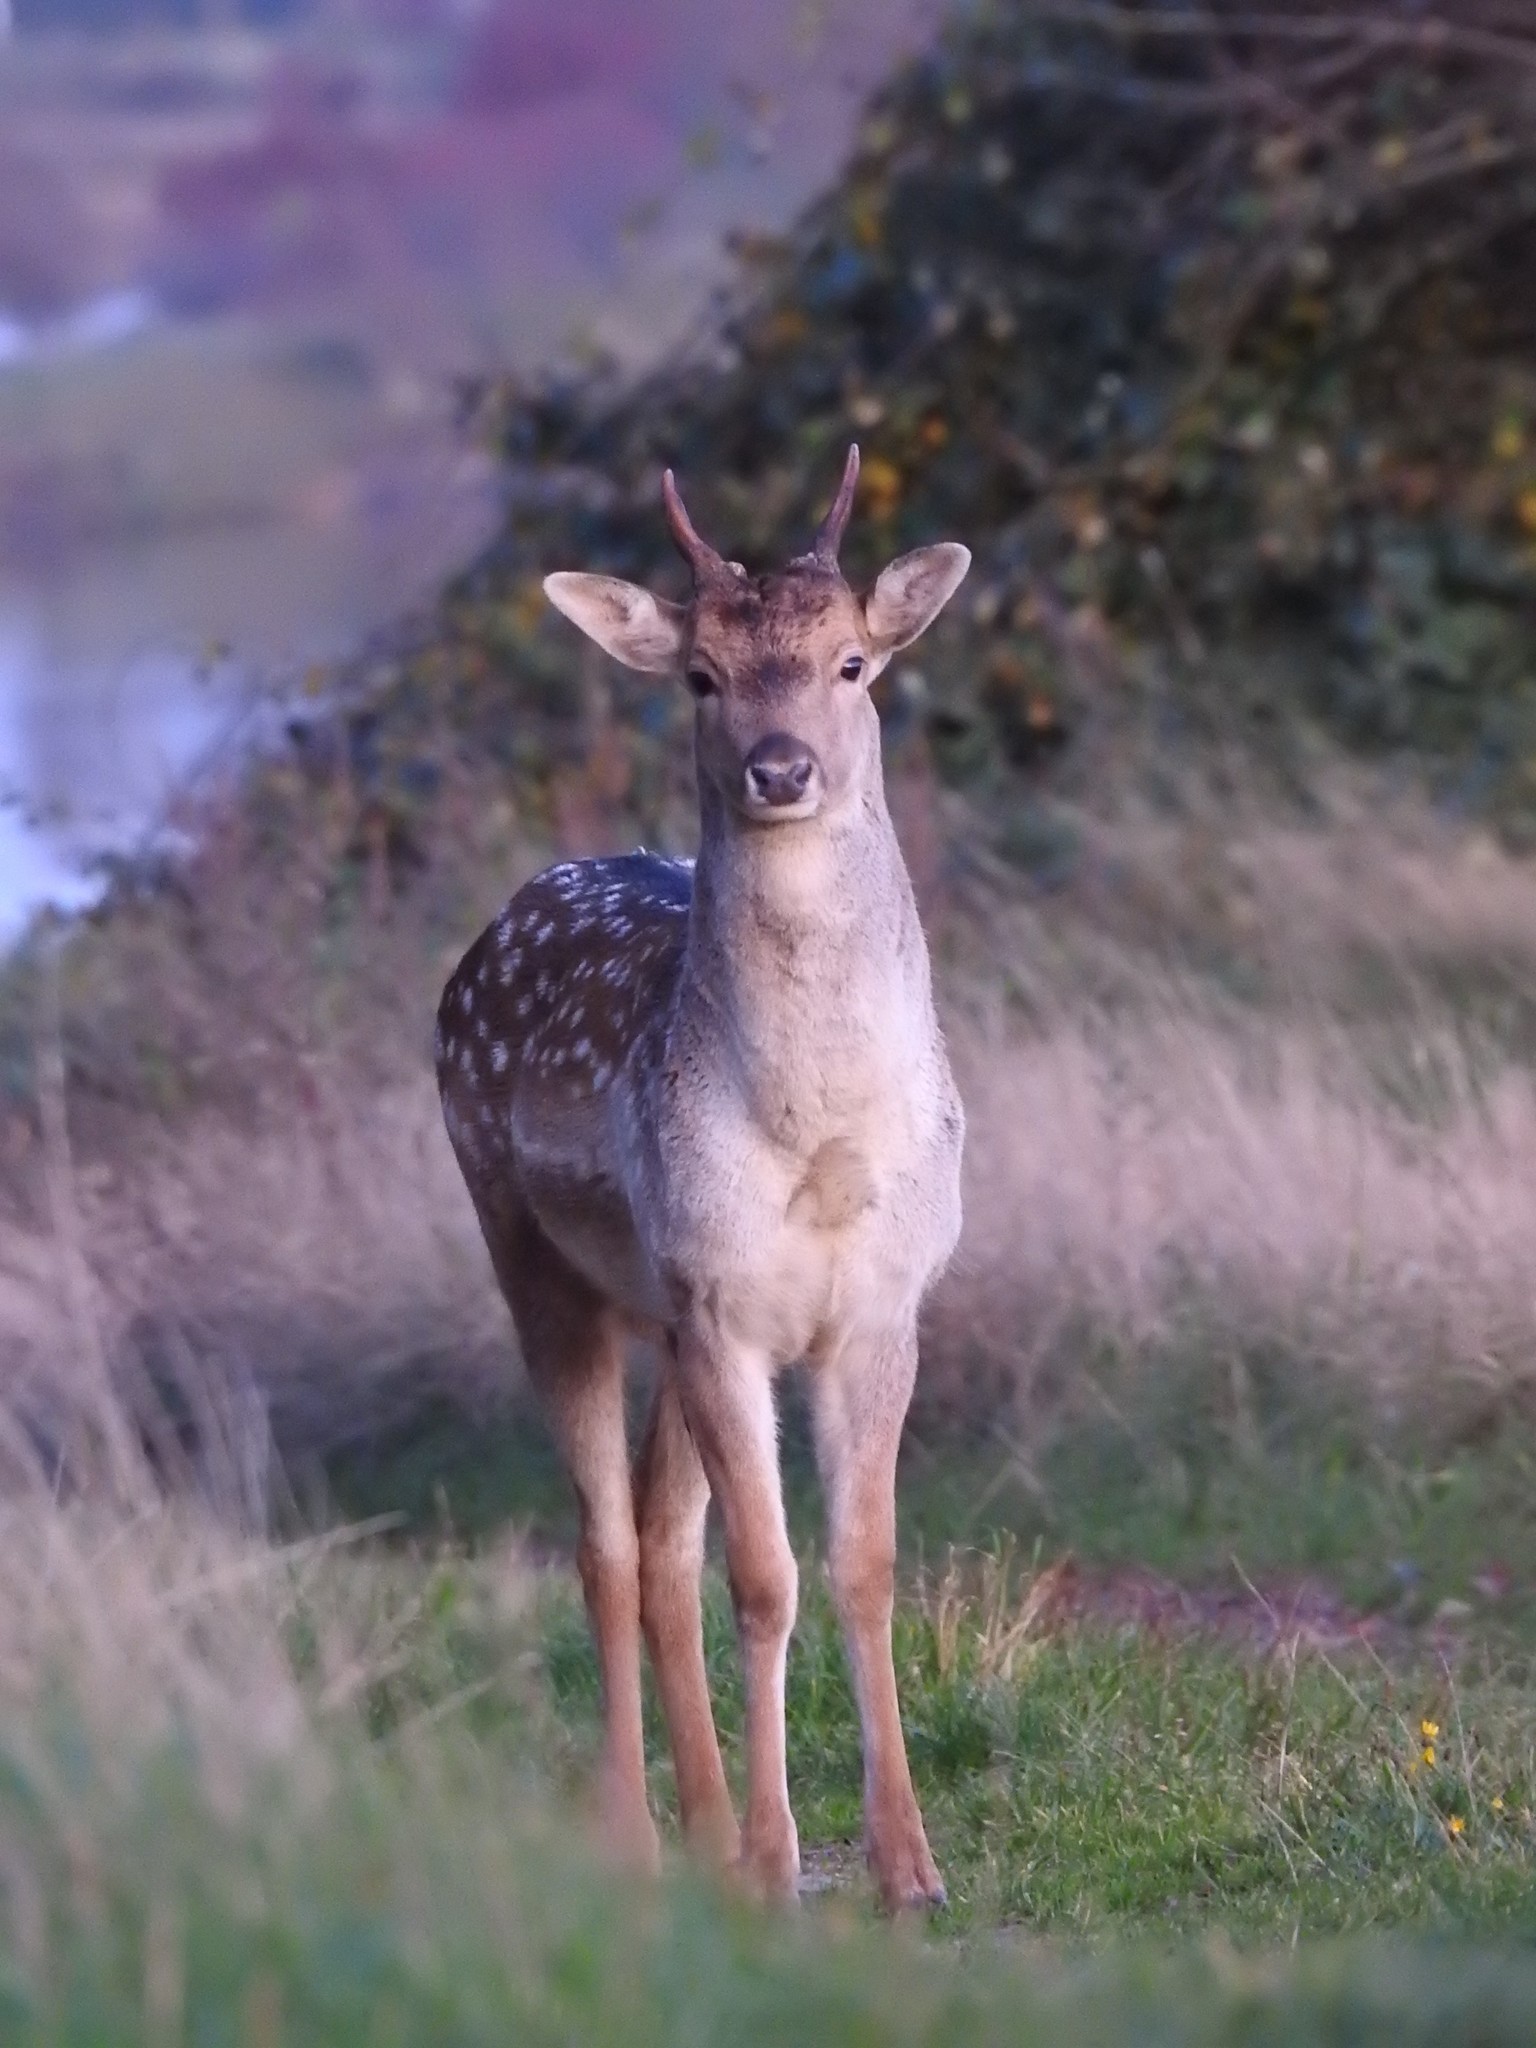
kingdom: Animalia
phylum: Chordata
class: Mammalia
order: Artiodactyla
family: Cervidae
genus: Dama
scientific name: Dama dama
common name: Fallow deer
